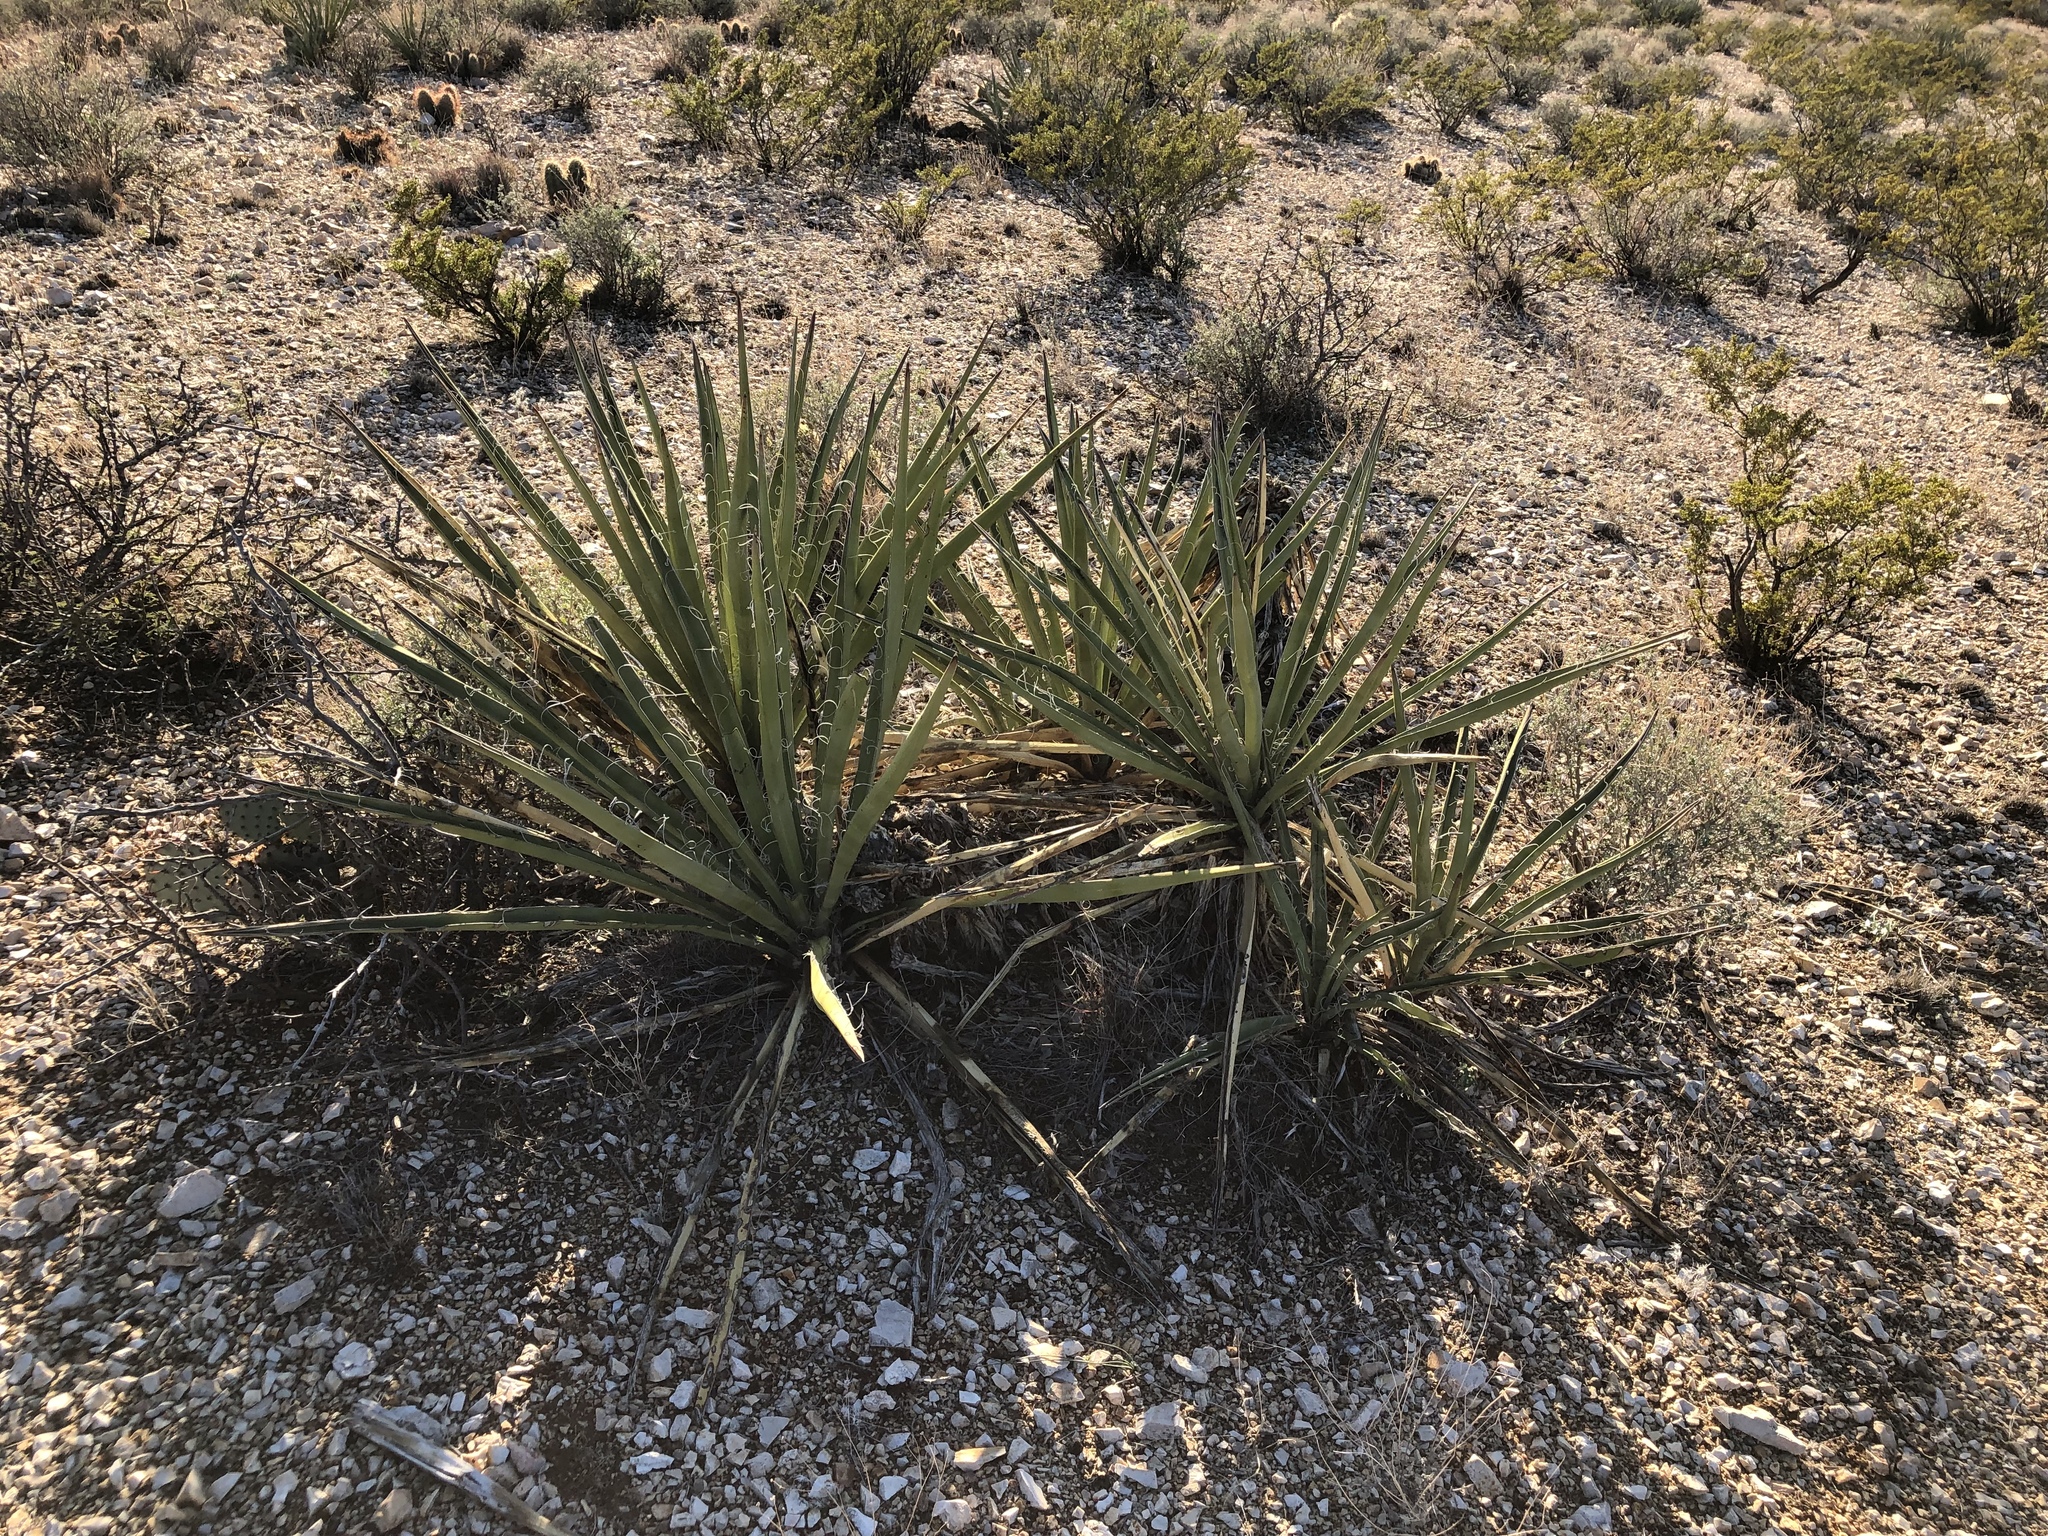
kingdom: Plantae
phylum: Tracheophyta
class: Liliopsida
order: Asparagales
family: Asparagaceae
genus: Yucca
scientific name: Yucca baccata
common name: Banana yucca
